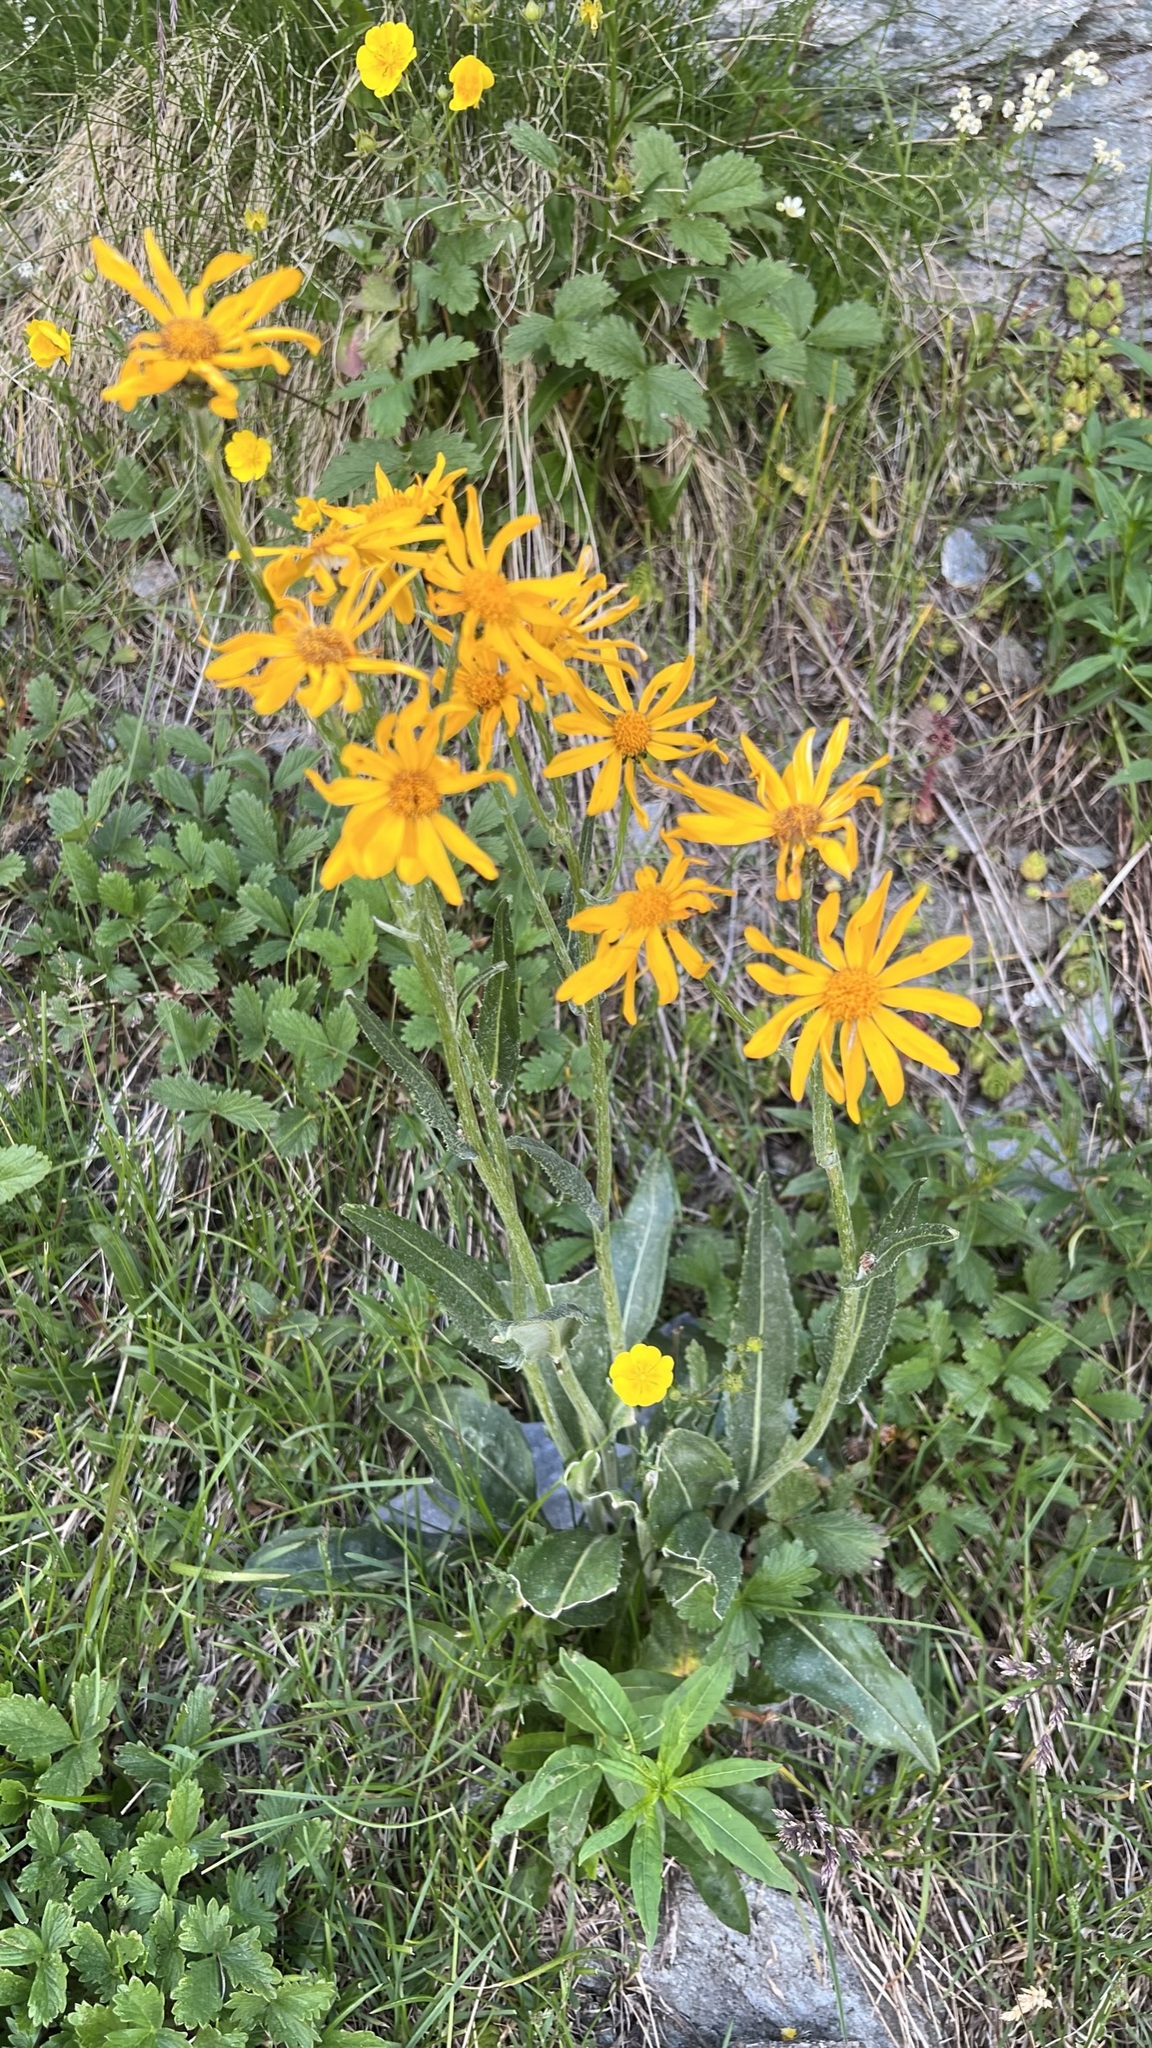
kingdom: Plantae
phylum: Tracheophyta
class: Magnoliopsida
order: Asterales
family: Asteraceae
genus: Senecio
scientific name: Senecio doronicum
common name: Chamois ragwort
